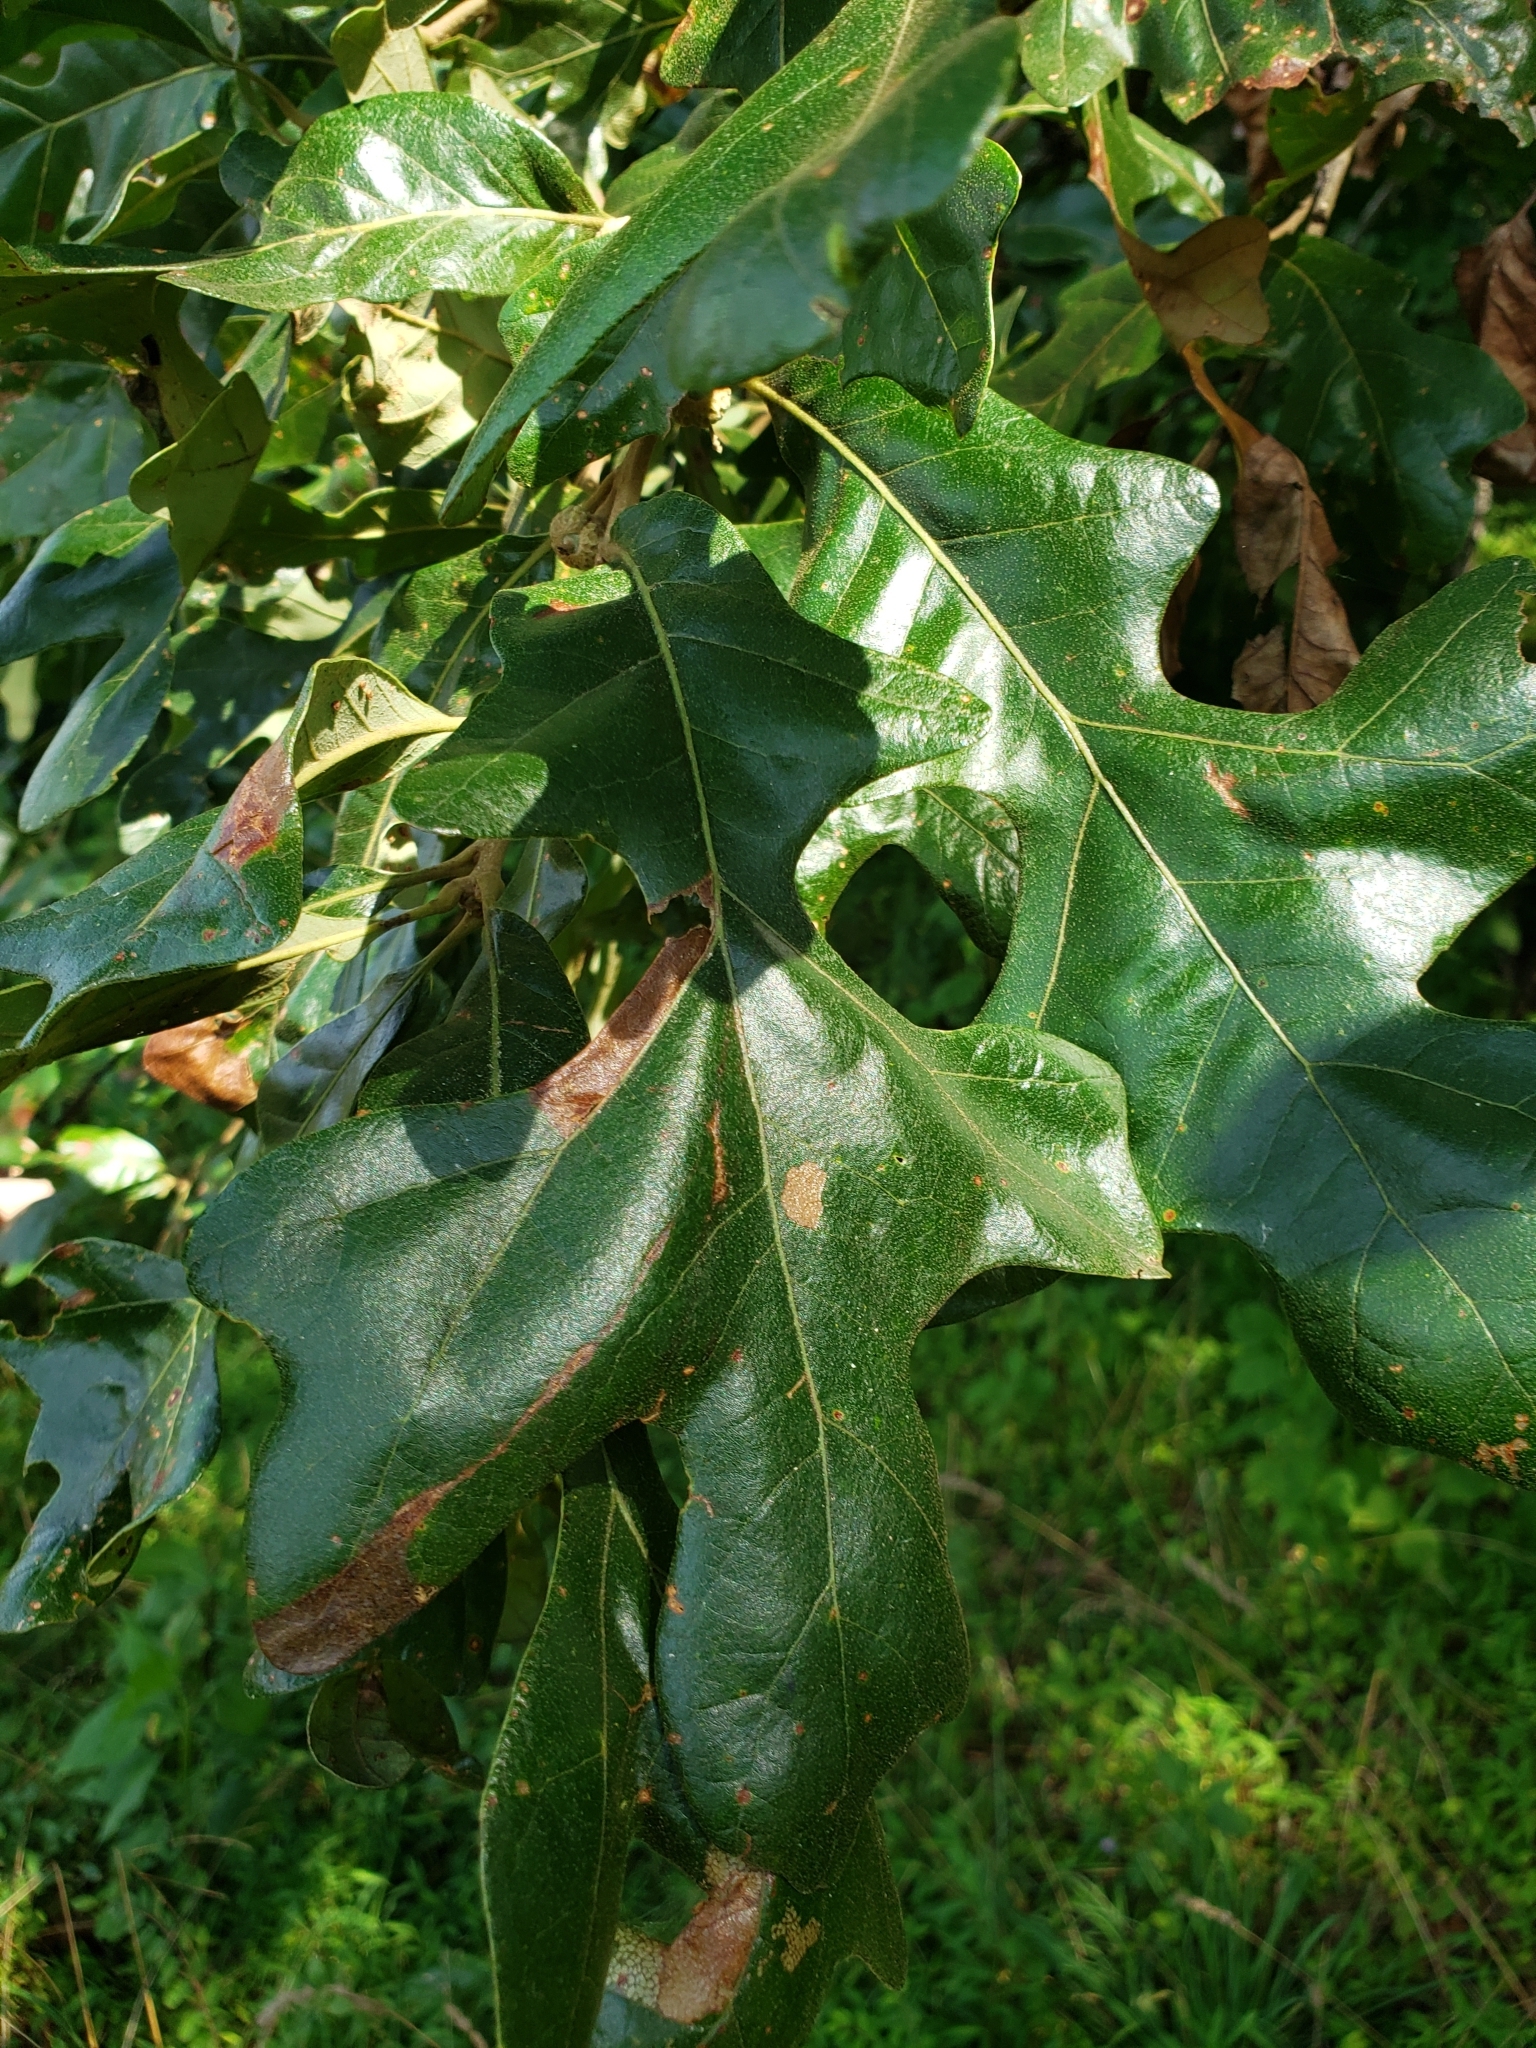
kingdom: Plantae
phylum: Tracheophyta
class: Magnoliopsida
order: Fagales
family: Fagaceae
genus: Quercus
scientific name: Quercus stellata
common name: Post oak
